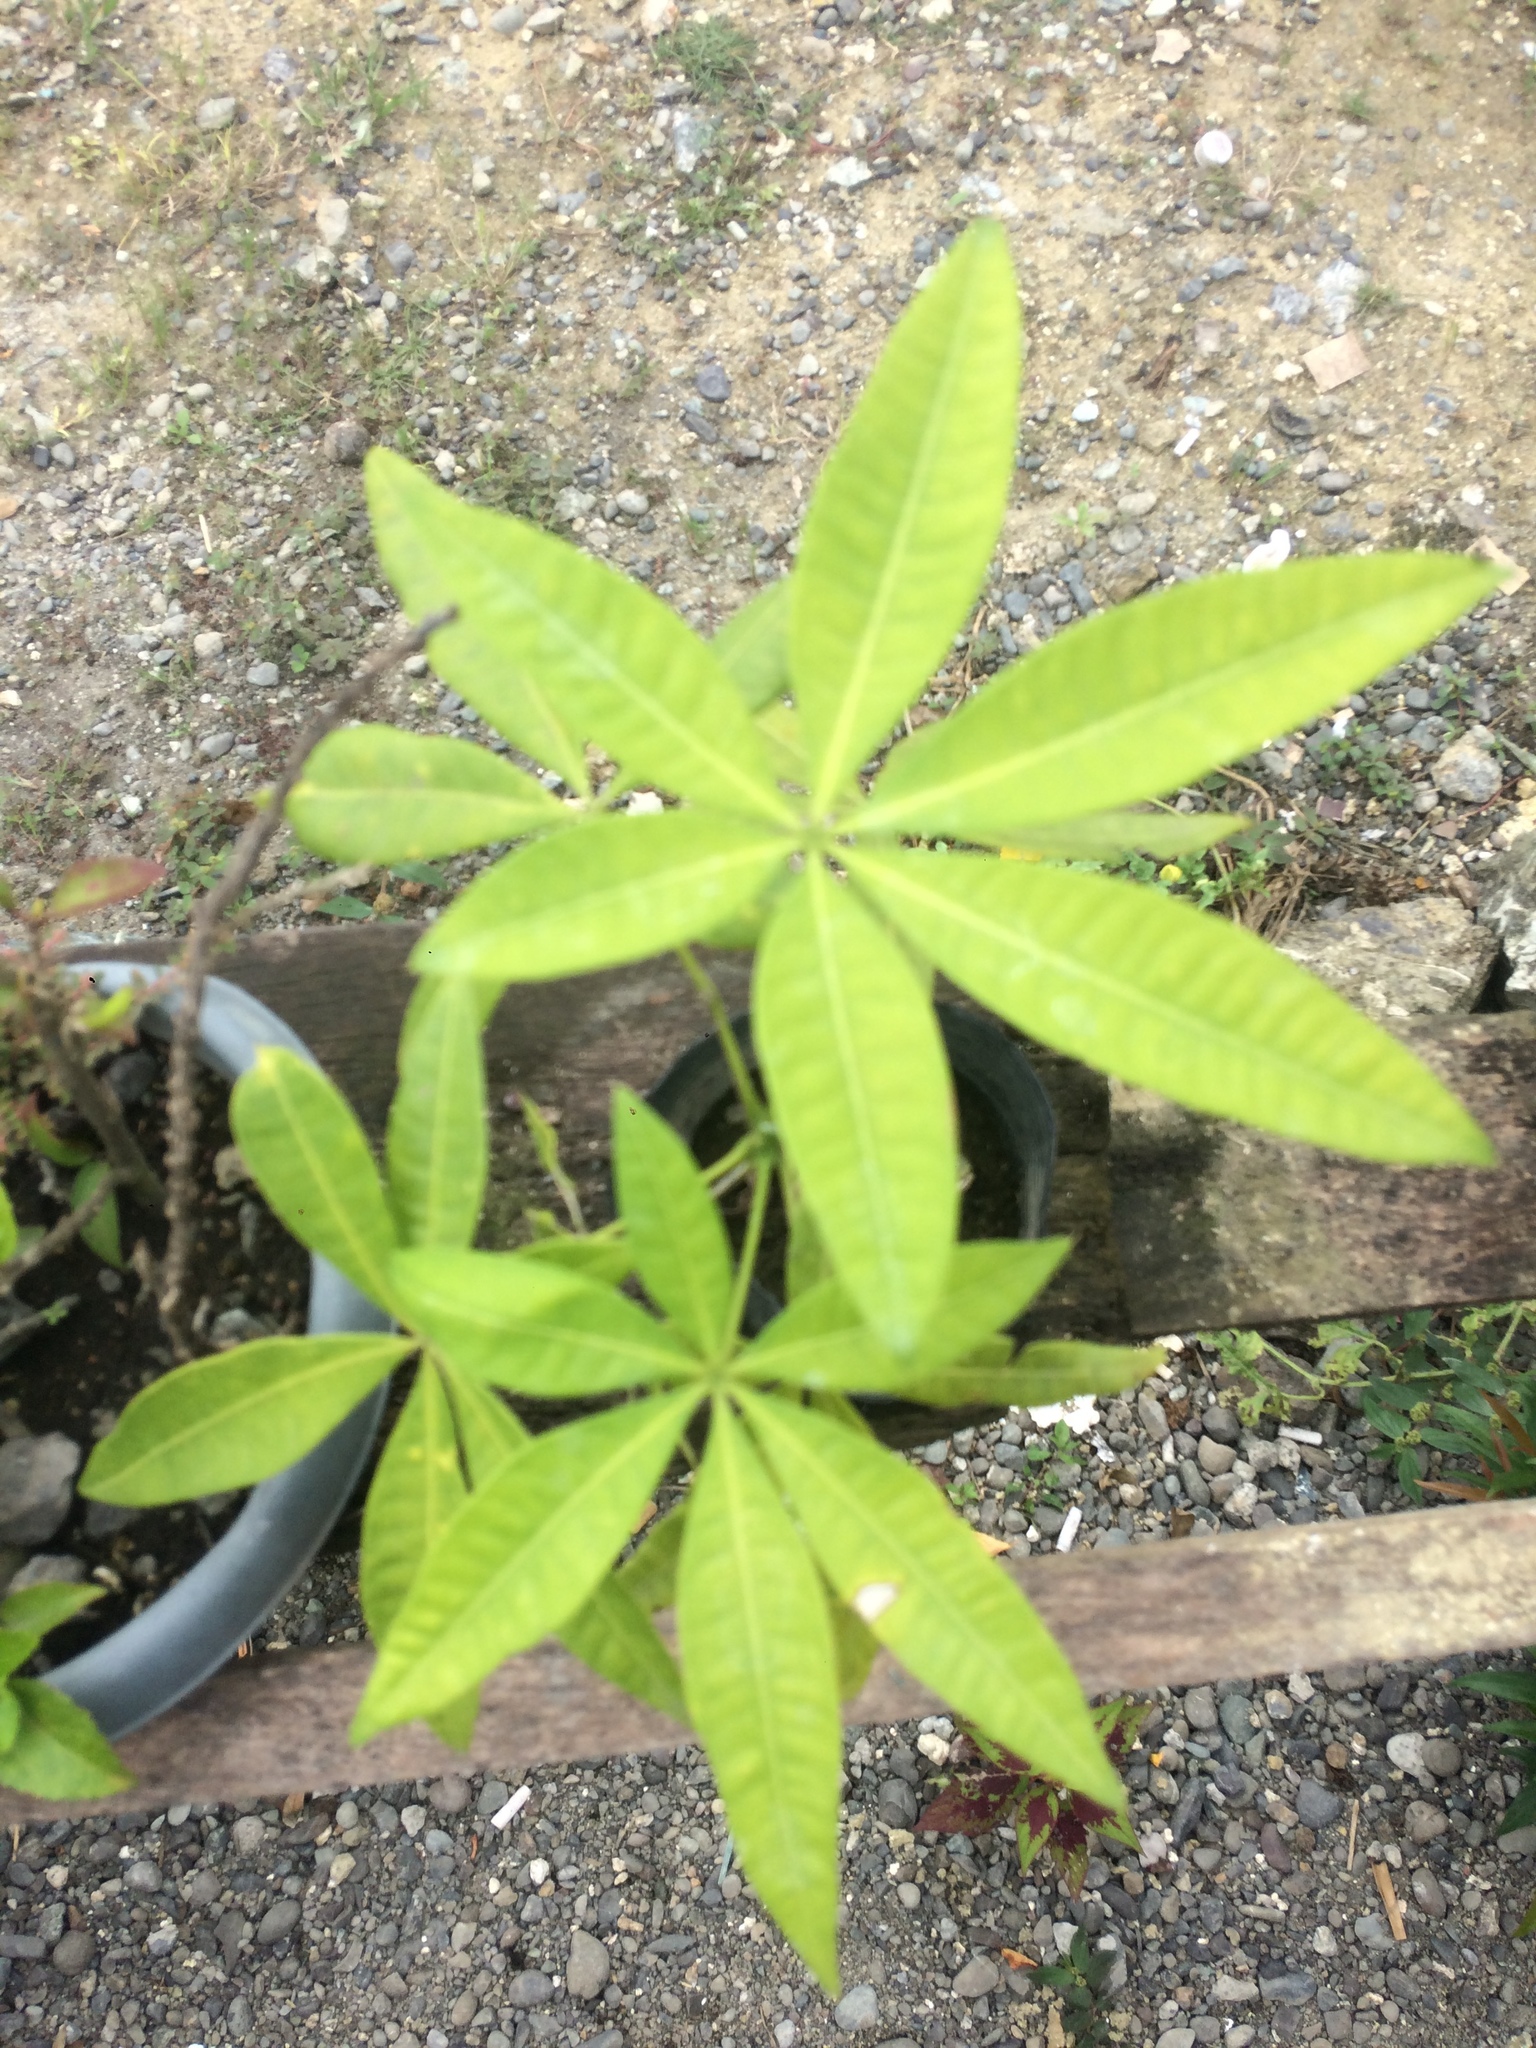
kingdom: Plantae
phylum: Tracheophyta
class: Magnoliopsida
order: Malvales
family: Malvaceae
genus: Pachira
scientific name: Pachira aquatica
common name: Provision-tree
